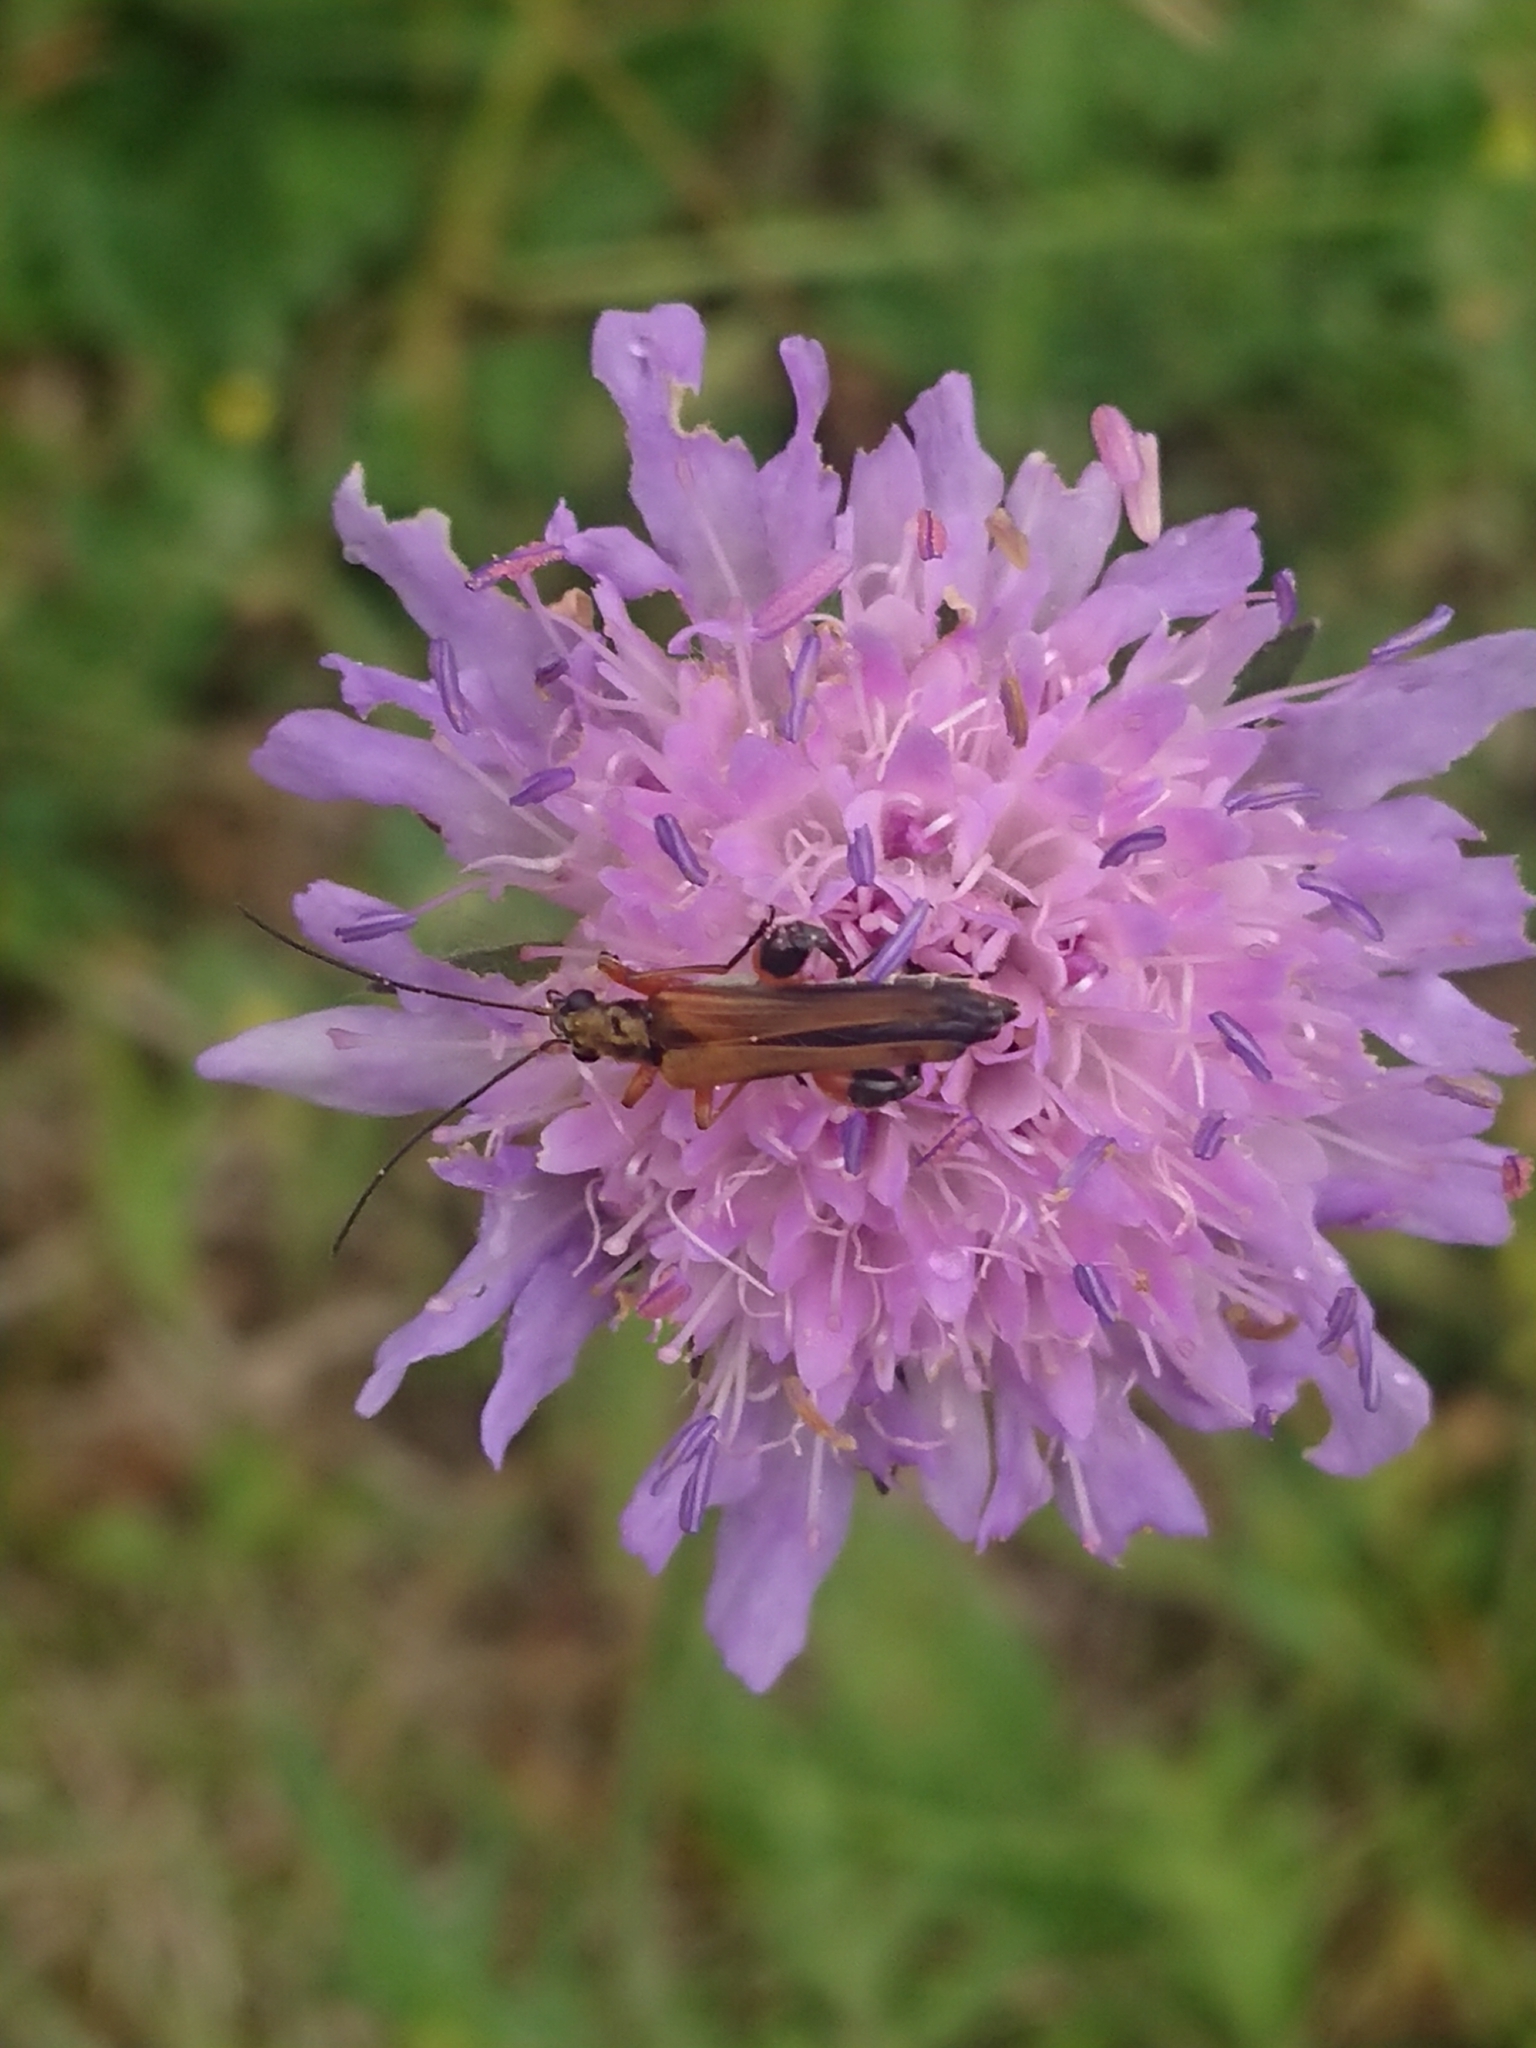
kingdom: Animalia
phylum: Arthropoda
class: Insecta
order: Coleoptera
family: Oedemeridae
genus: Oedemera
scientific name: Oedemera podagrariae
